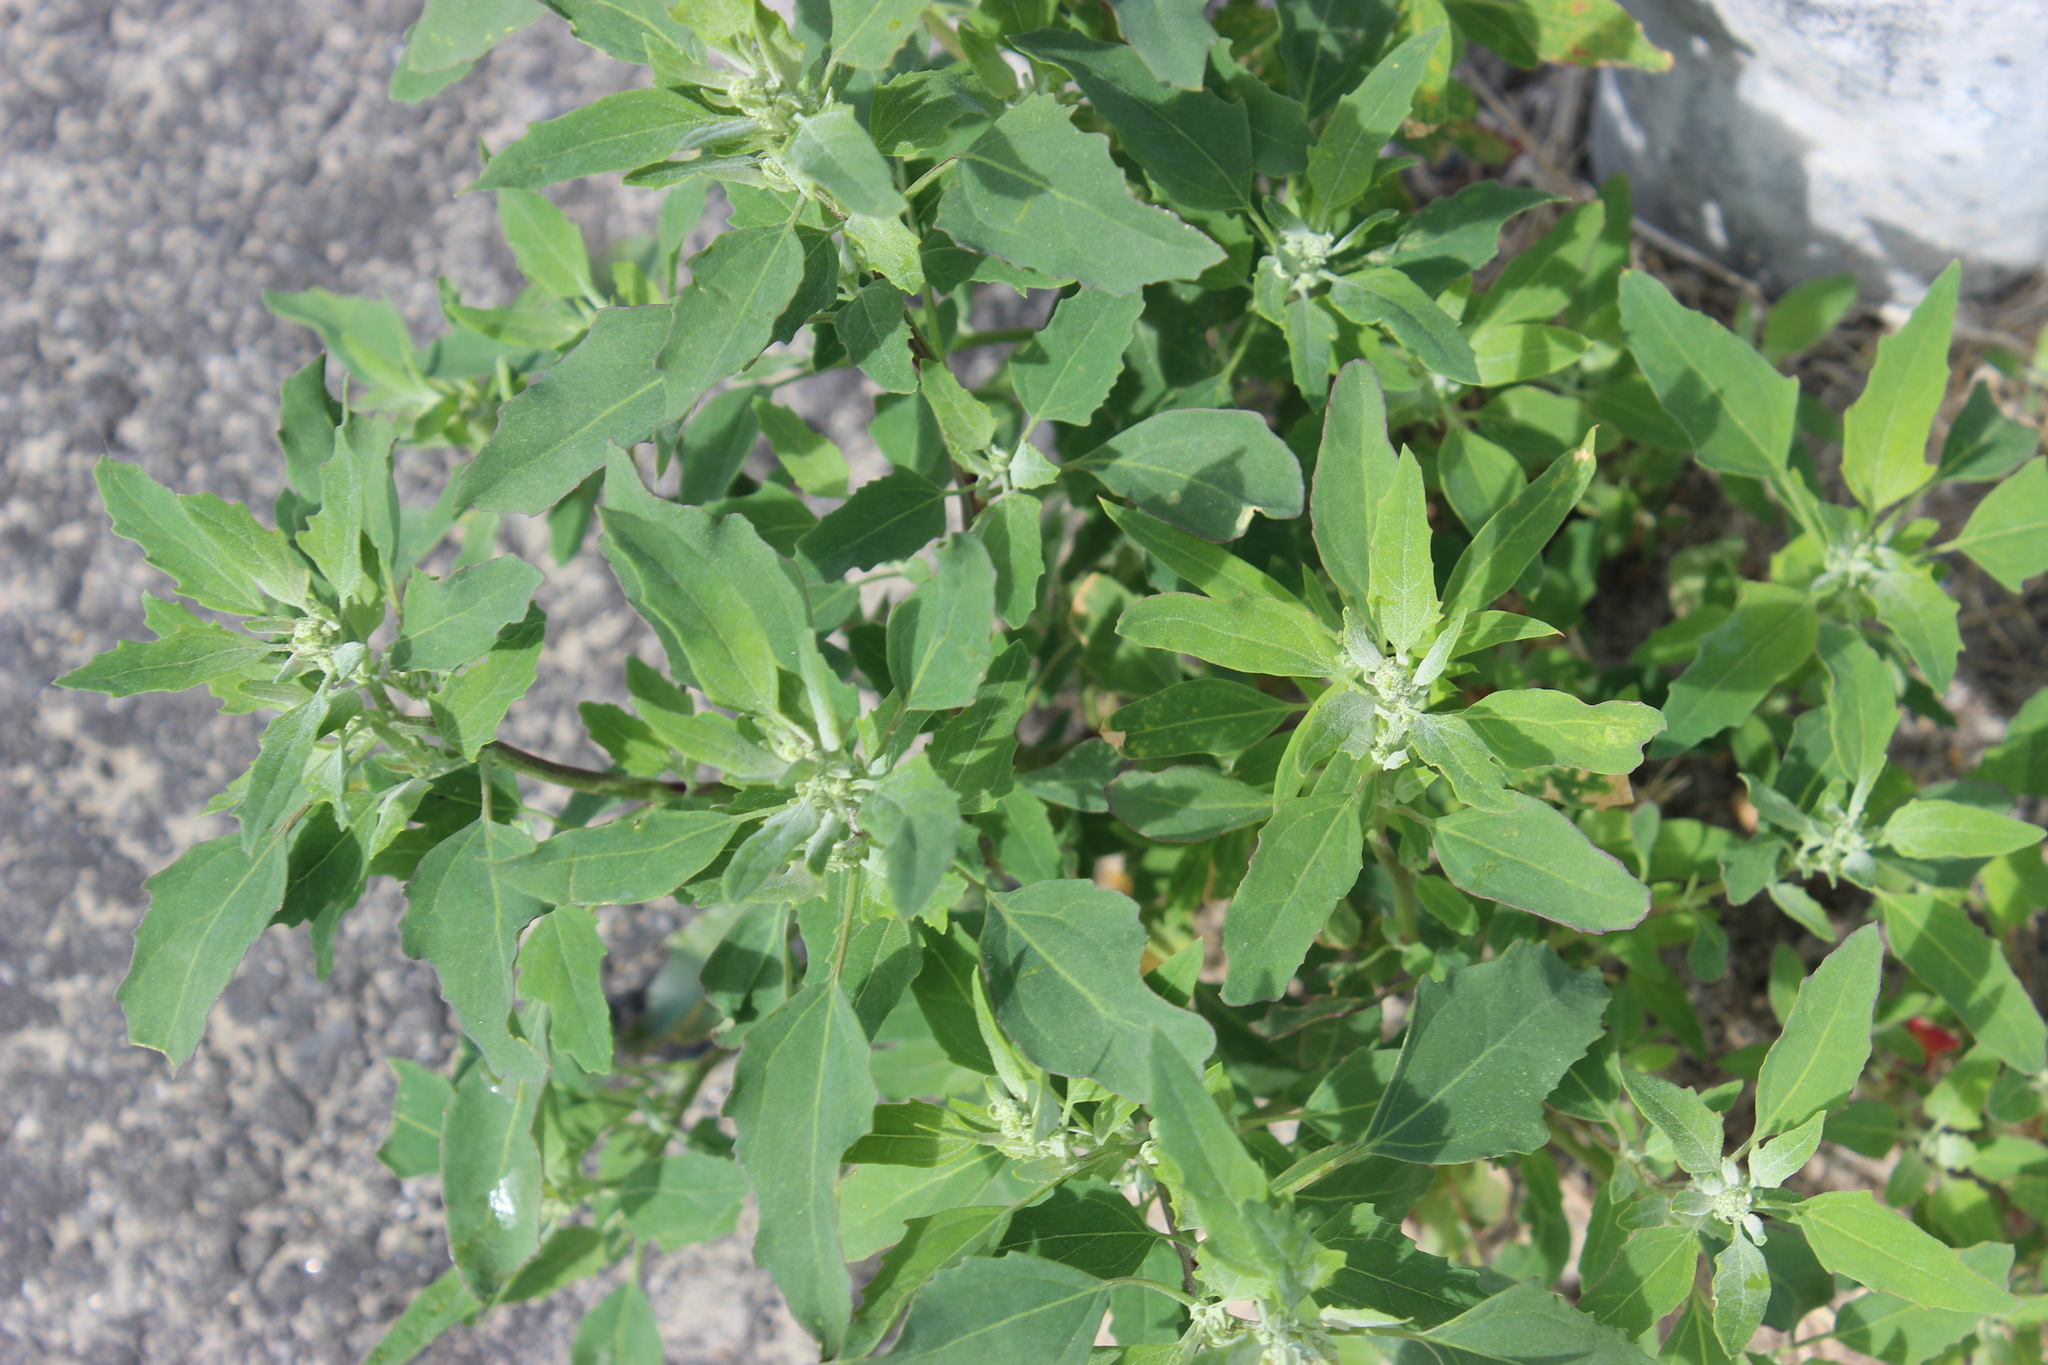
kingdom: Plantae
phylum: Tracheophyta
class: Magnoliopsida
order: Caryophyllales
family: Amaranthaceae
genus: Chenopodium
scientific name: Chenopodium album
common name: Fat-hen
